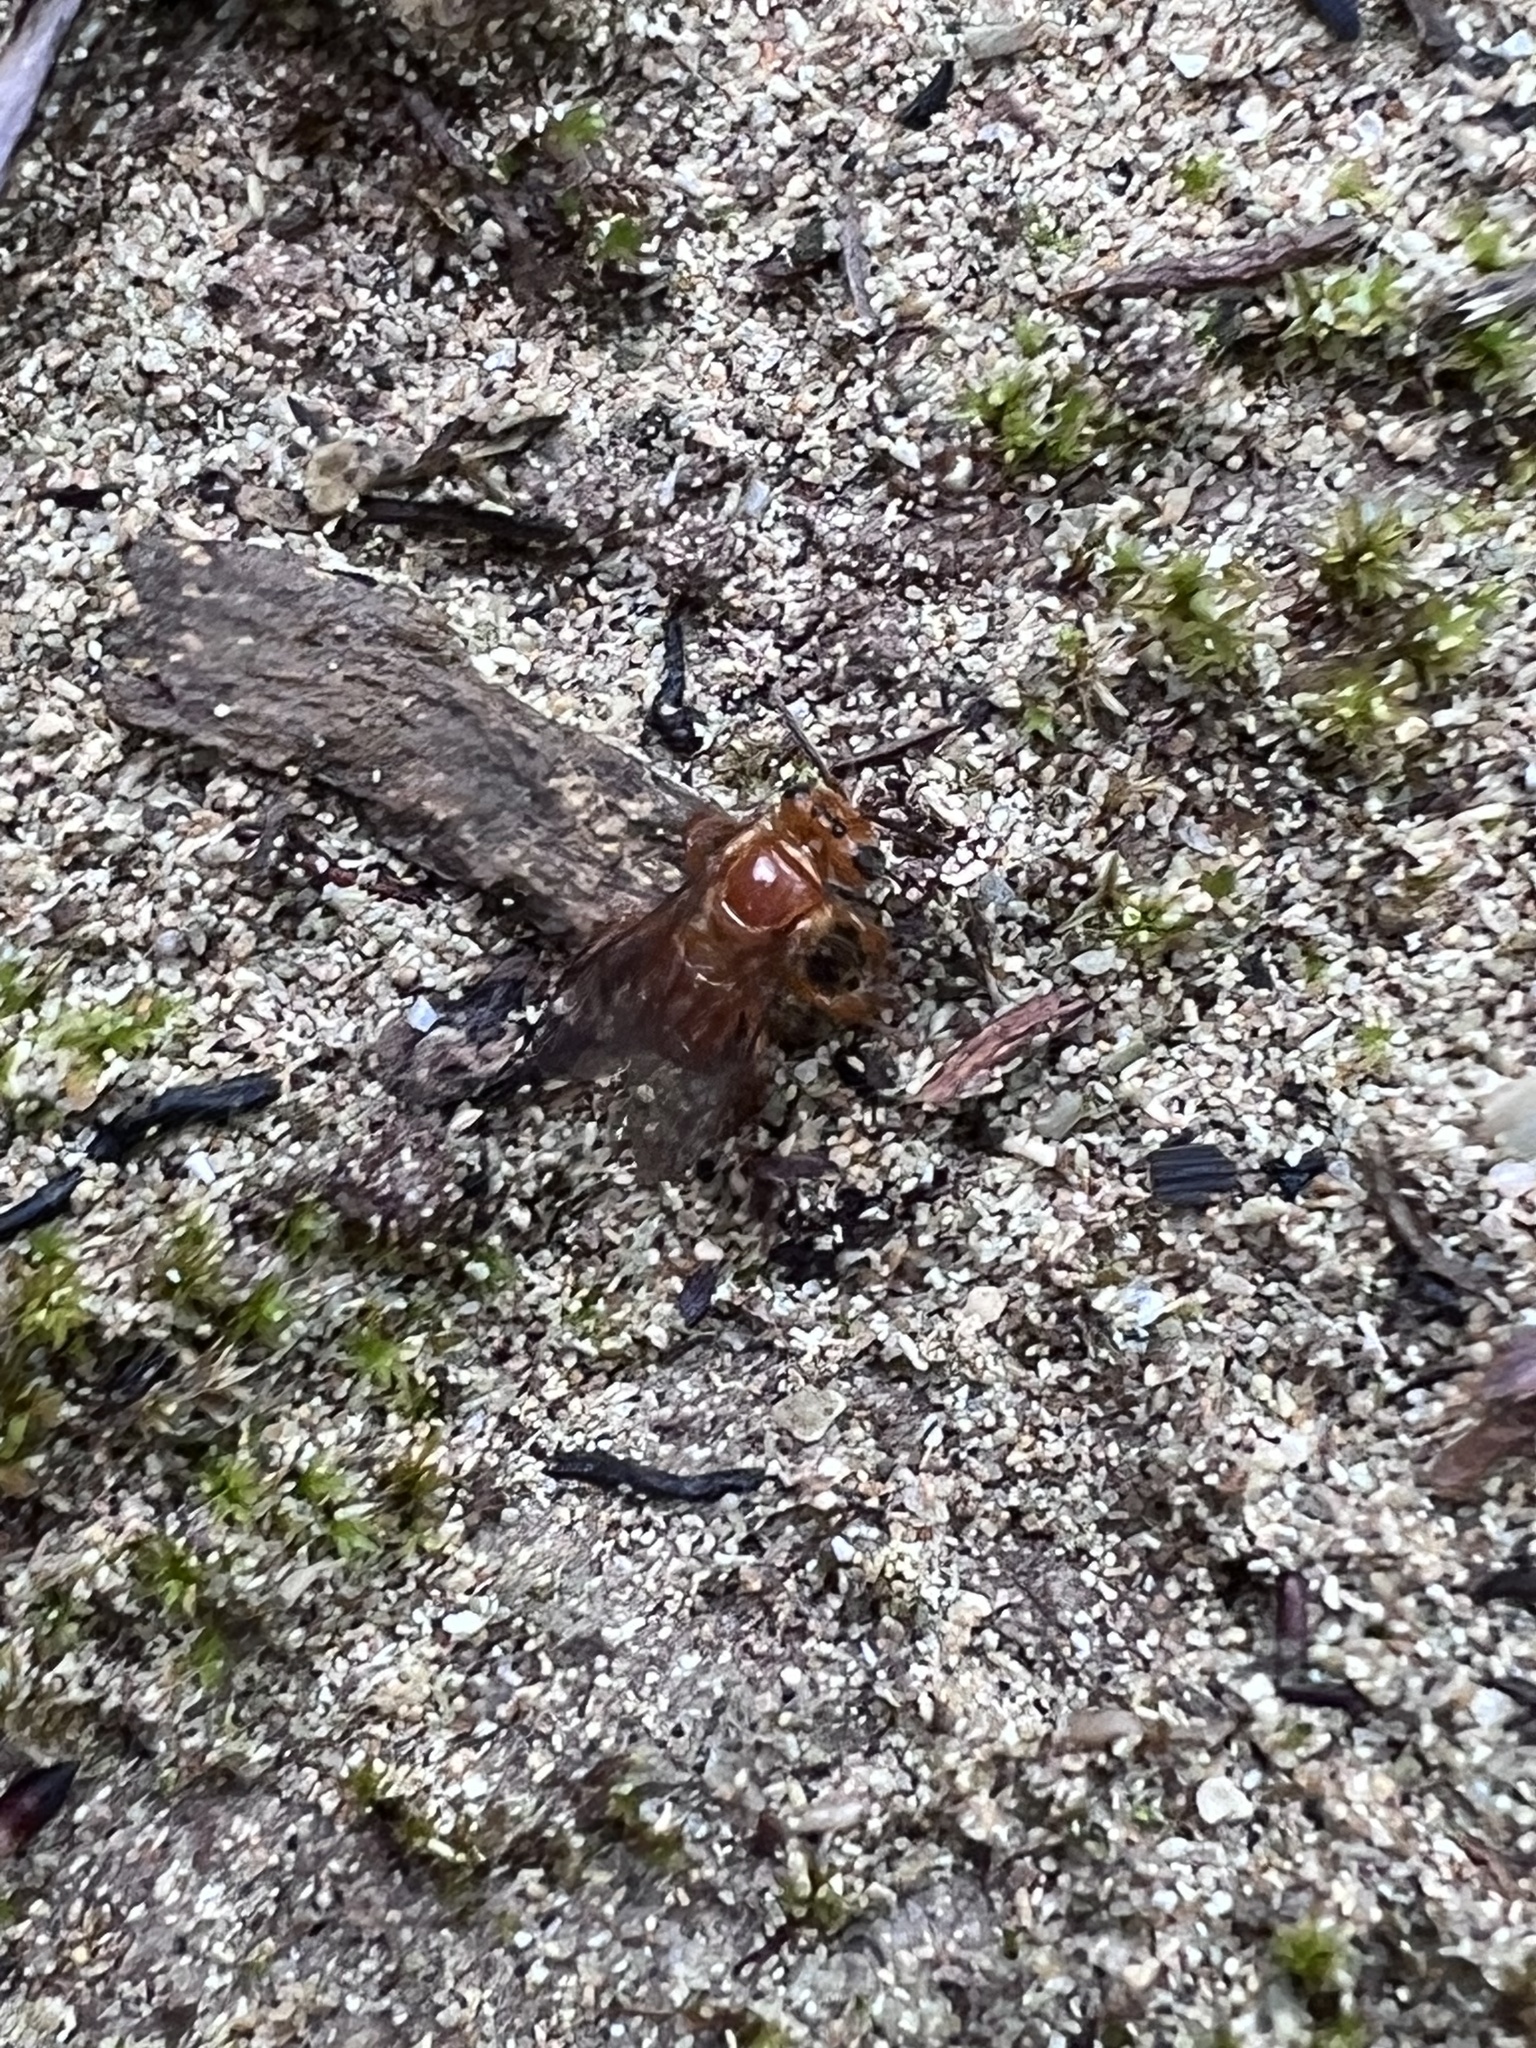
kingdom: Animalia
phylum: Arthropoda
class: Insecta
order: Hymenoptera
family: Apidae
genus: Partamona
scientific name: Partamona musarum
